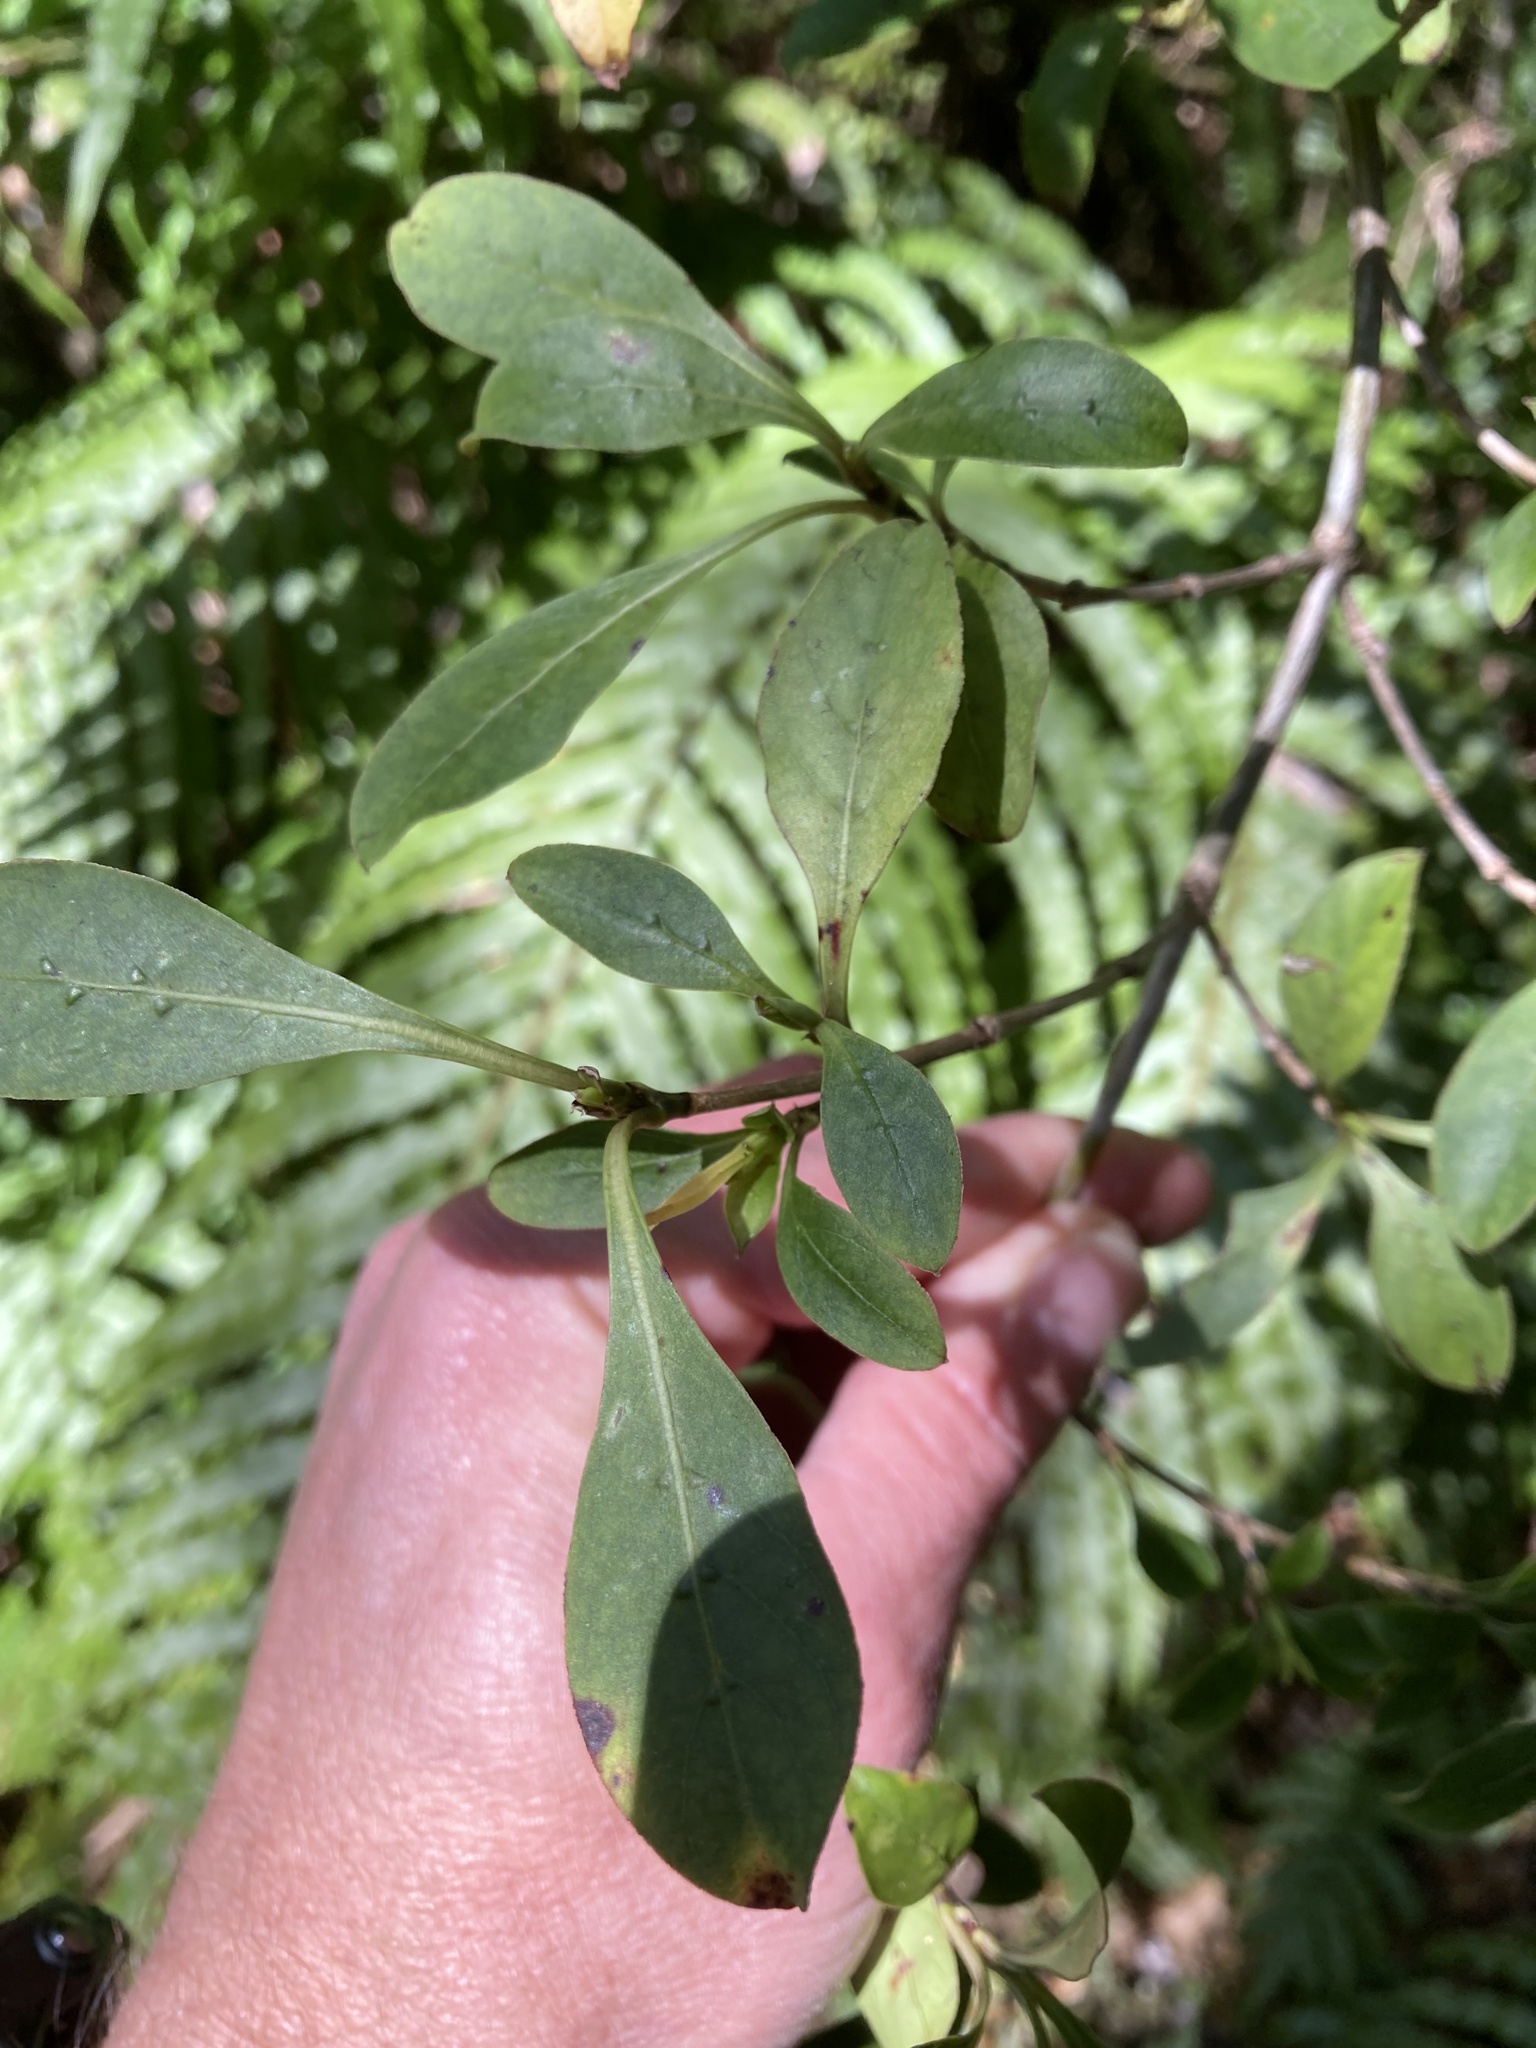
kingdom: Plantae
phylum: Tracheophyta
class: Magnoliopsida
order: Gentianales
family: Rubiaceae
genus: Coprosma
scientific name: Coprosma foetidissima
